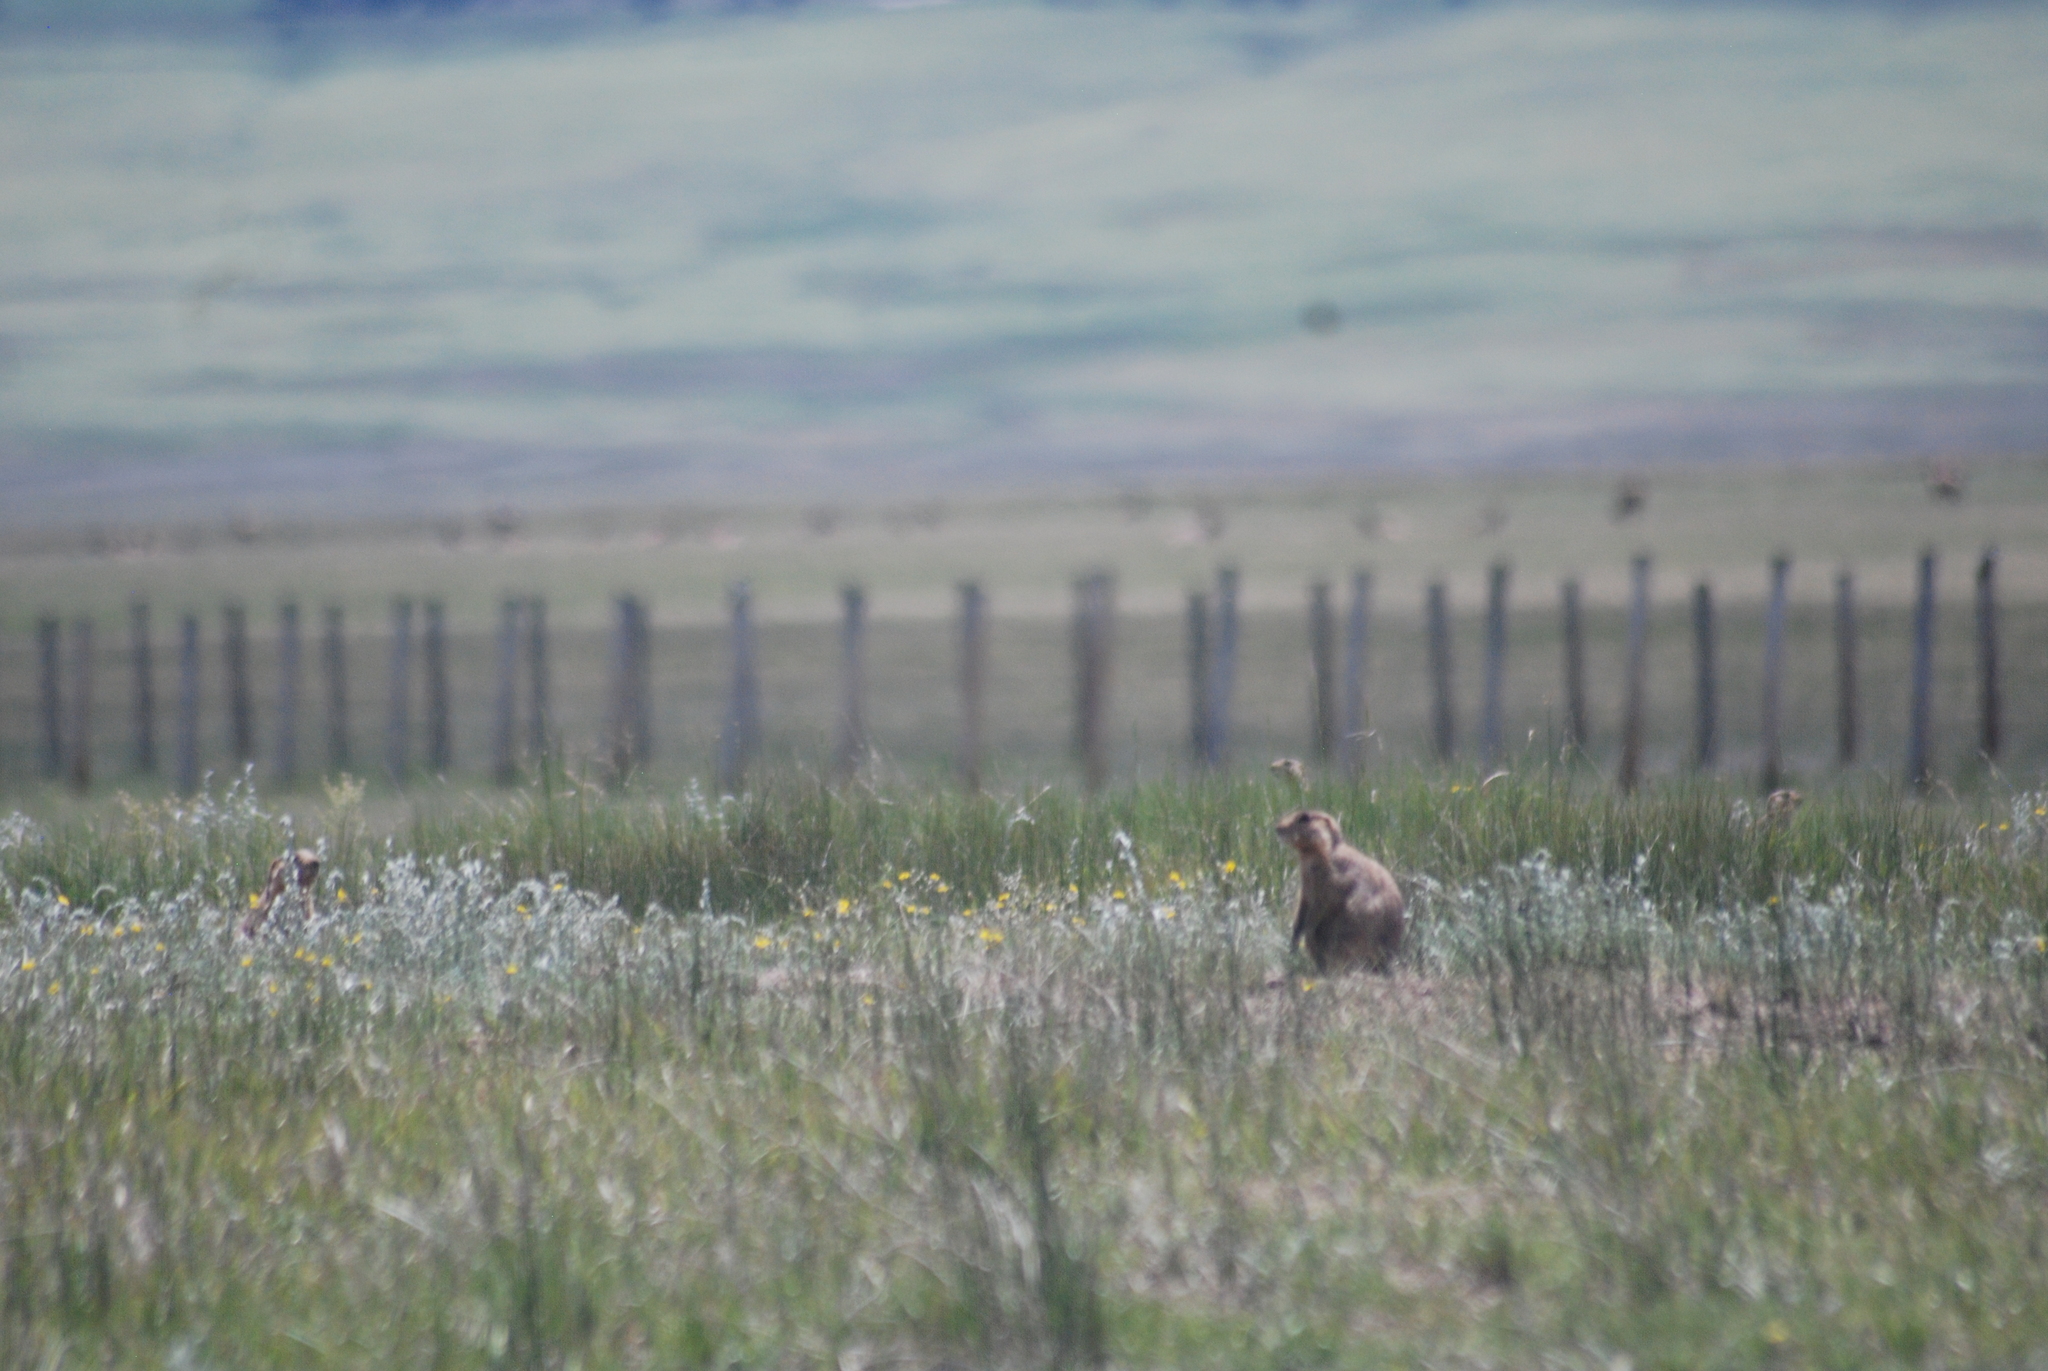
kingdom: Animalia
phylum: Chordata
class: Mammalia
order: Rodentia
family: Sciuridae
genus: Cynomys
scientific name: Cynomys gunnisoni
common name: Gunnison's prairie dog
